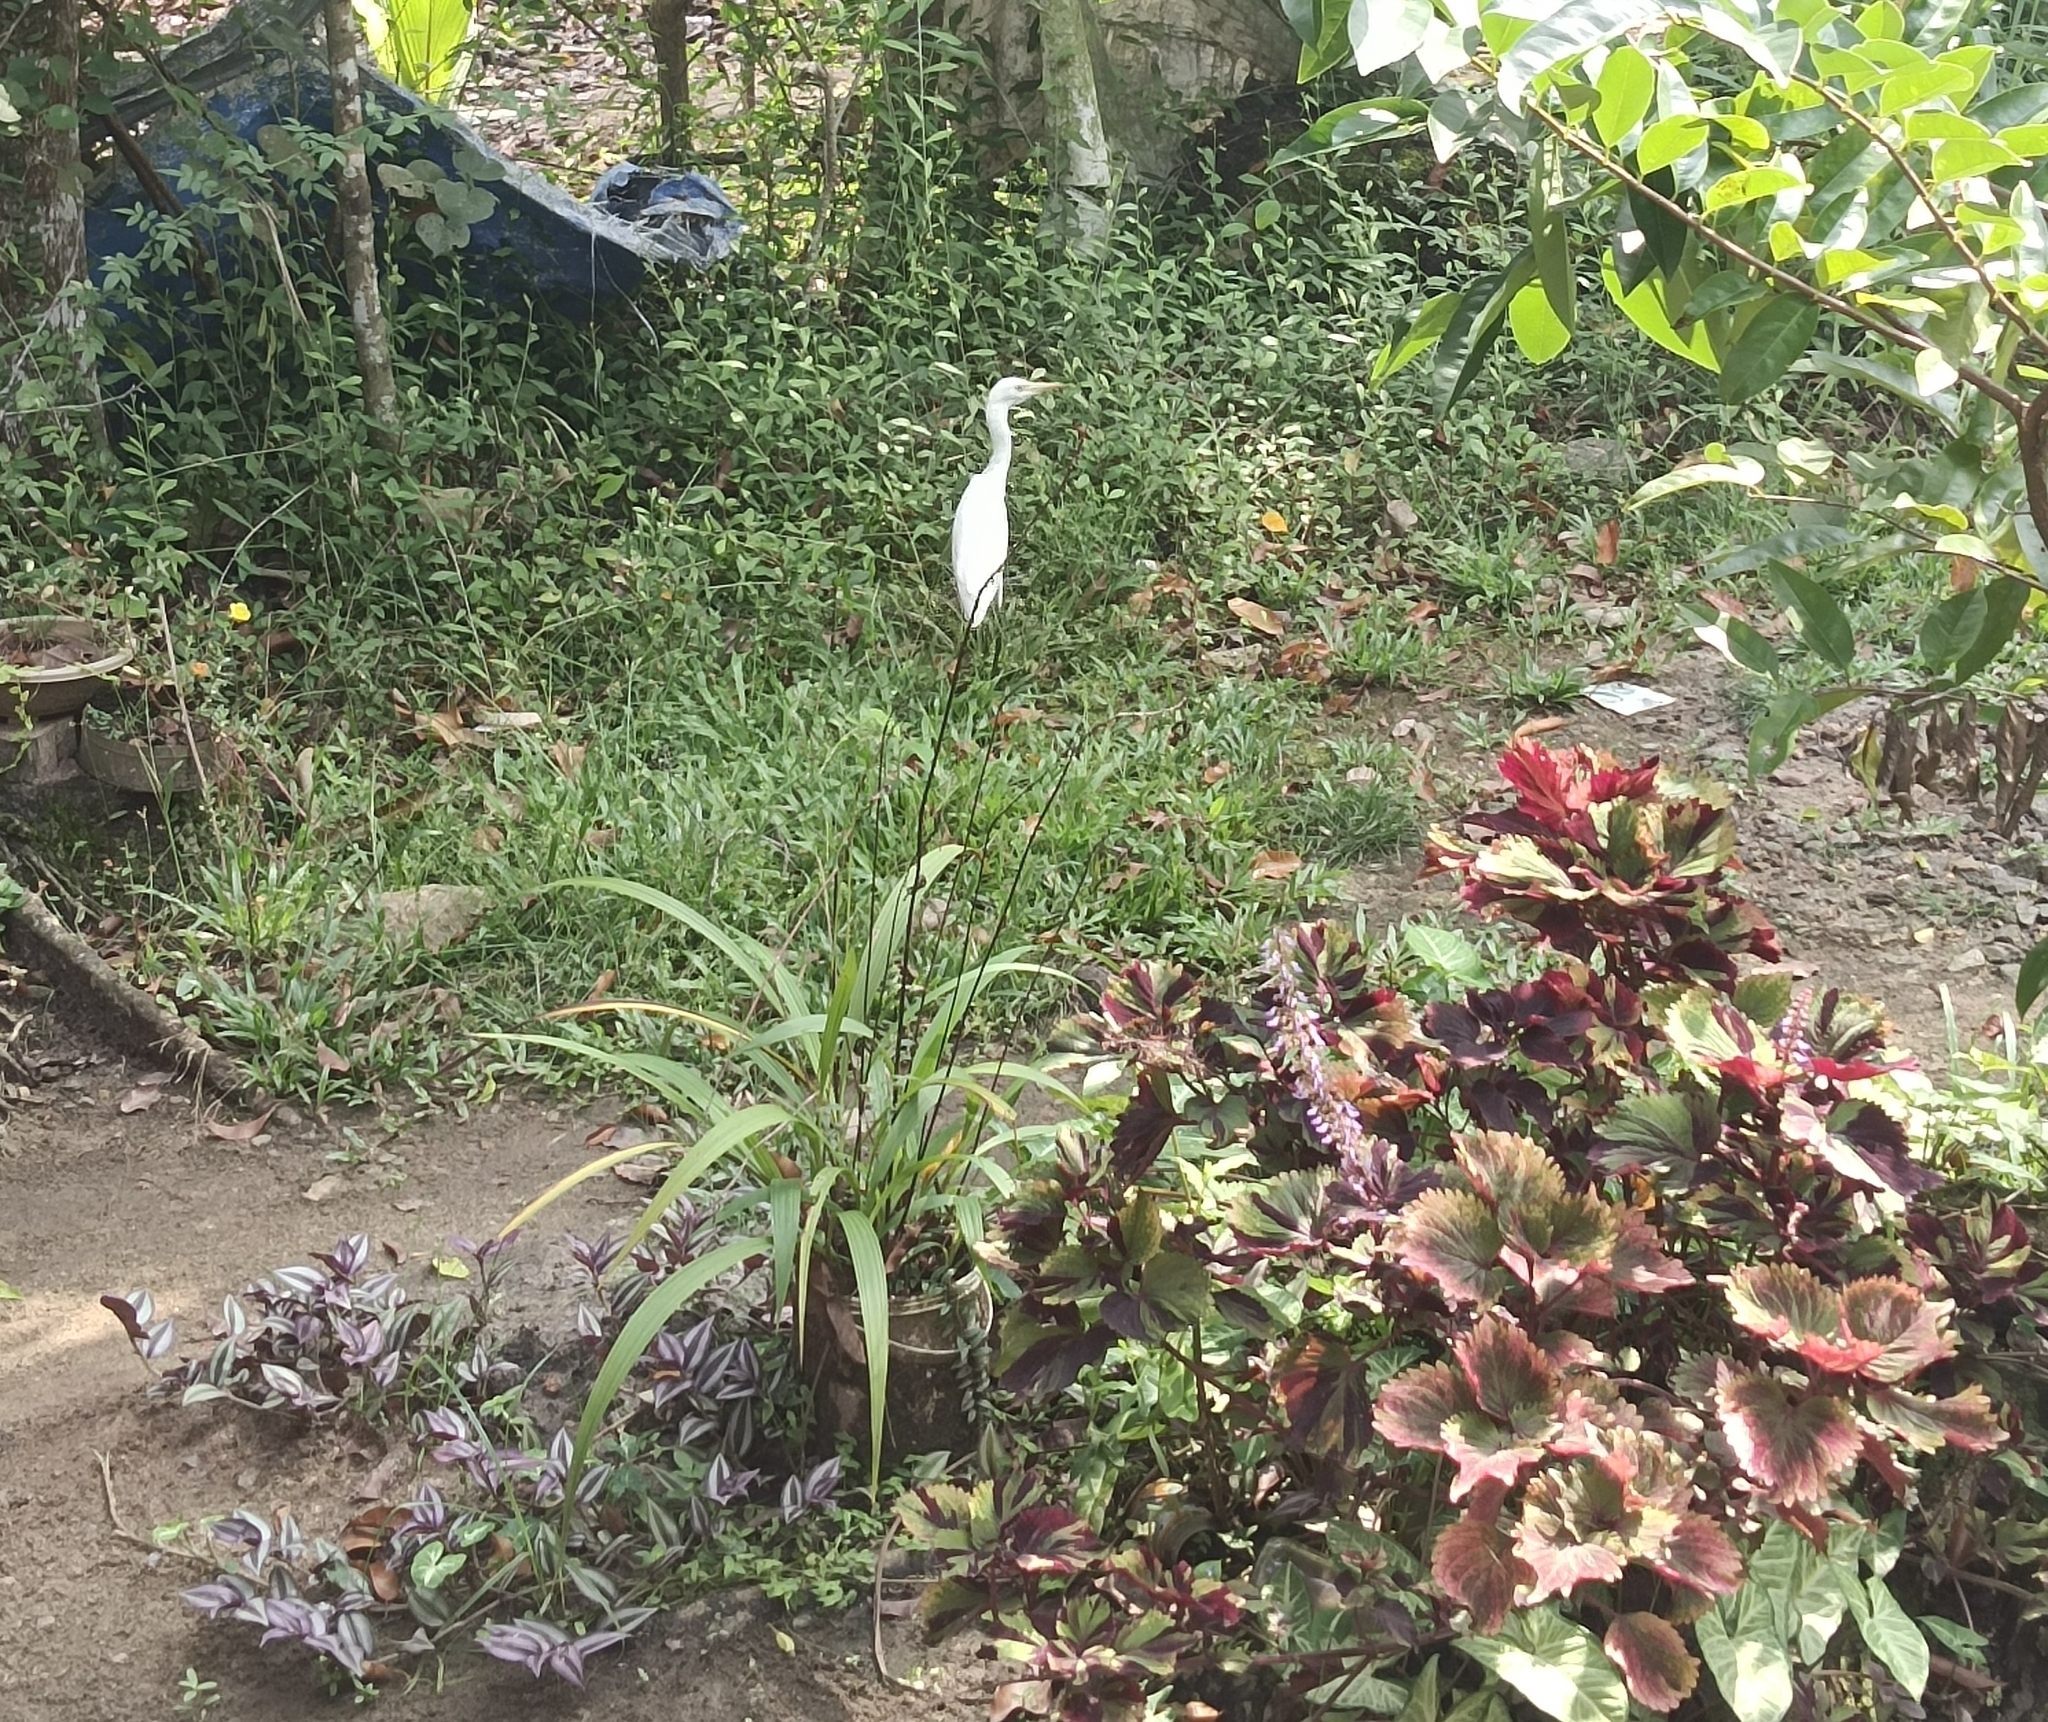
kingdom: Animalia
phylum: Chordata
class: Aves
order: Pelecaniformes
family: Ardeidae
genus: Bubulcus
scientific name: Bubulcus coromandus
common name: Eastern cattle egret
